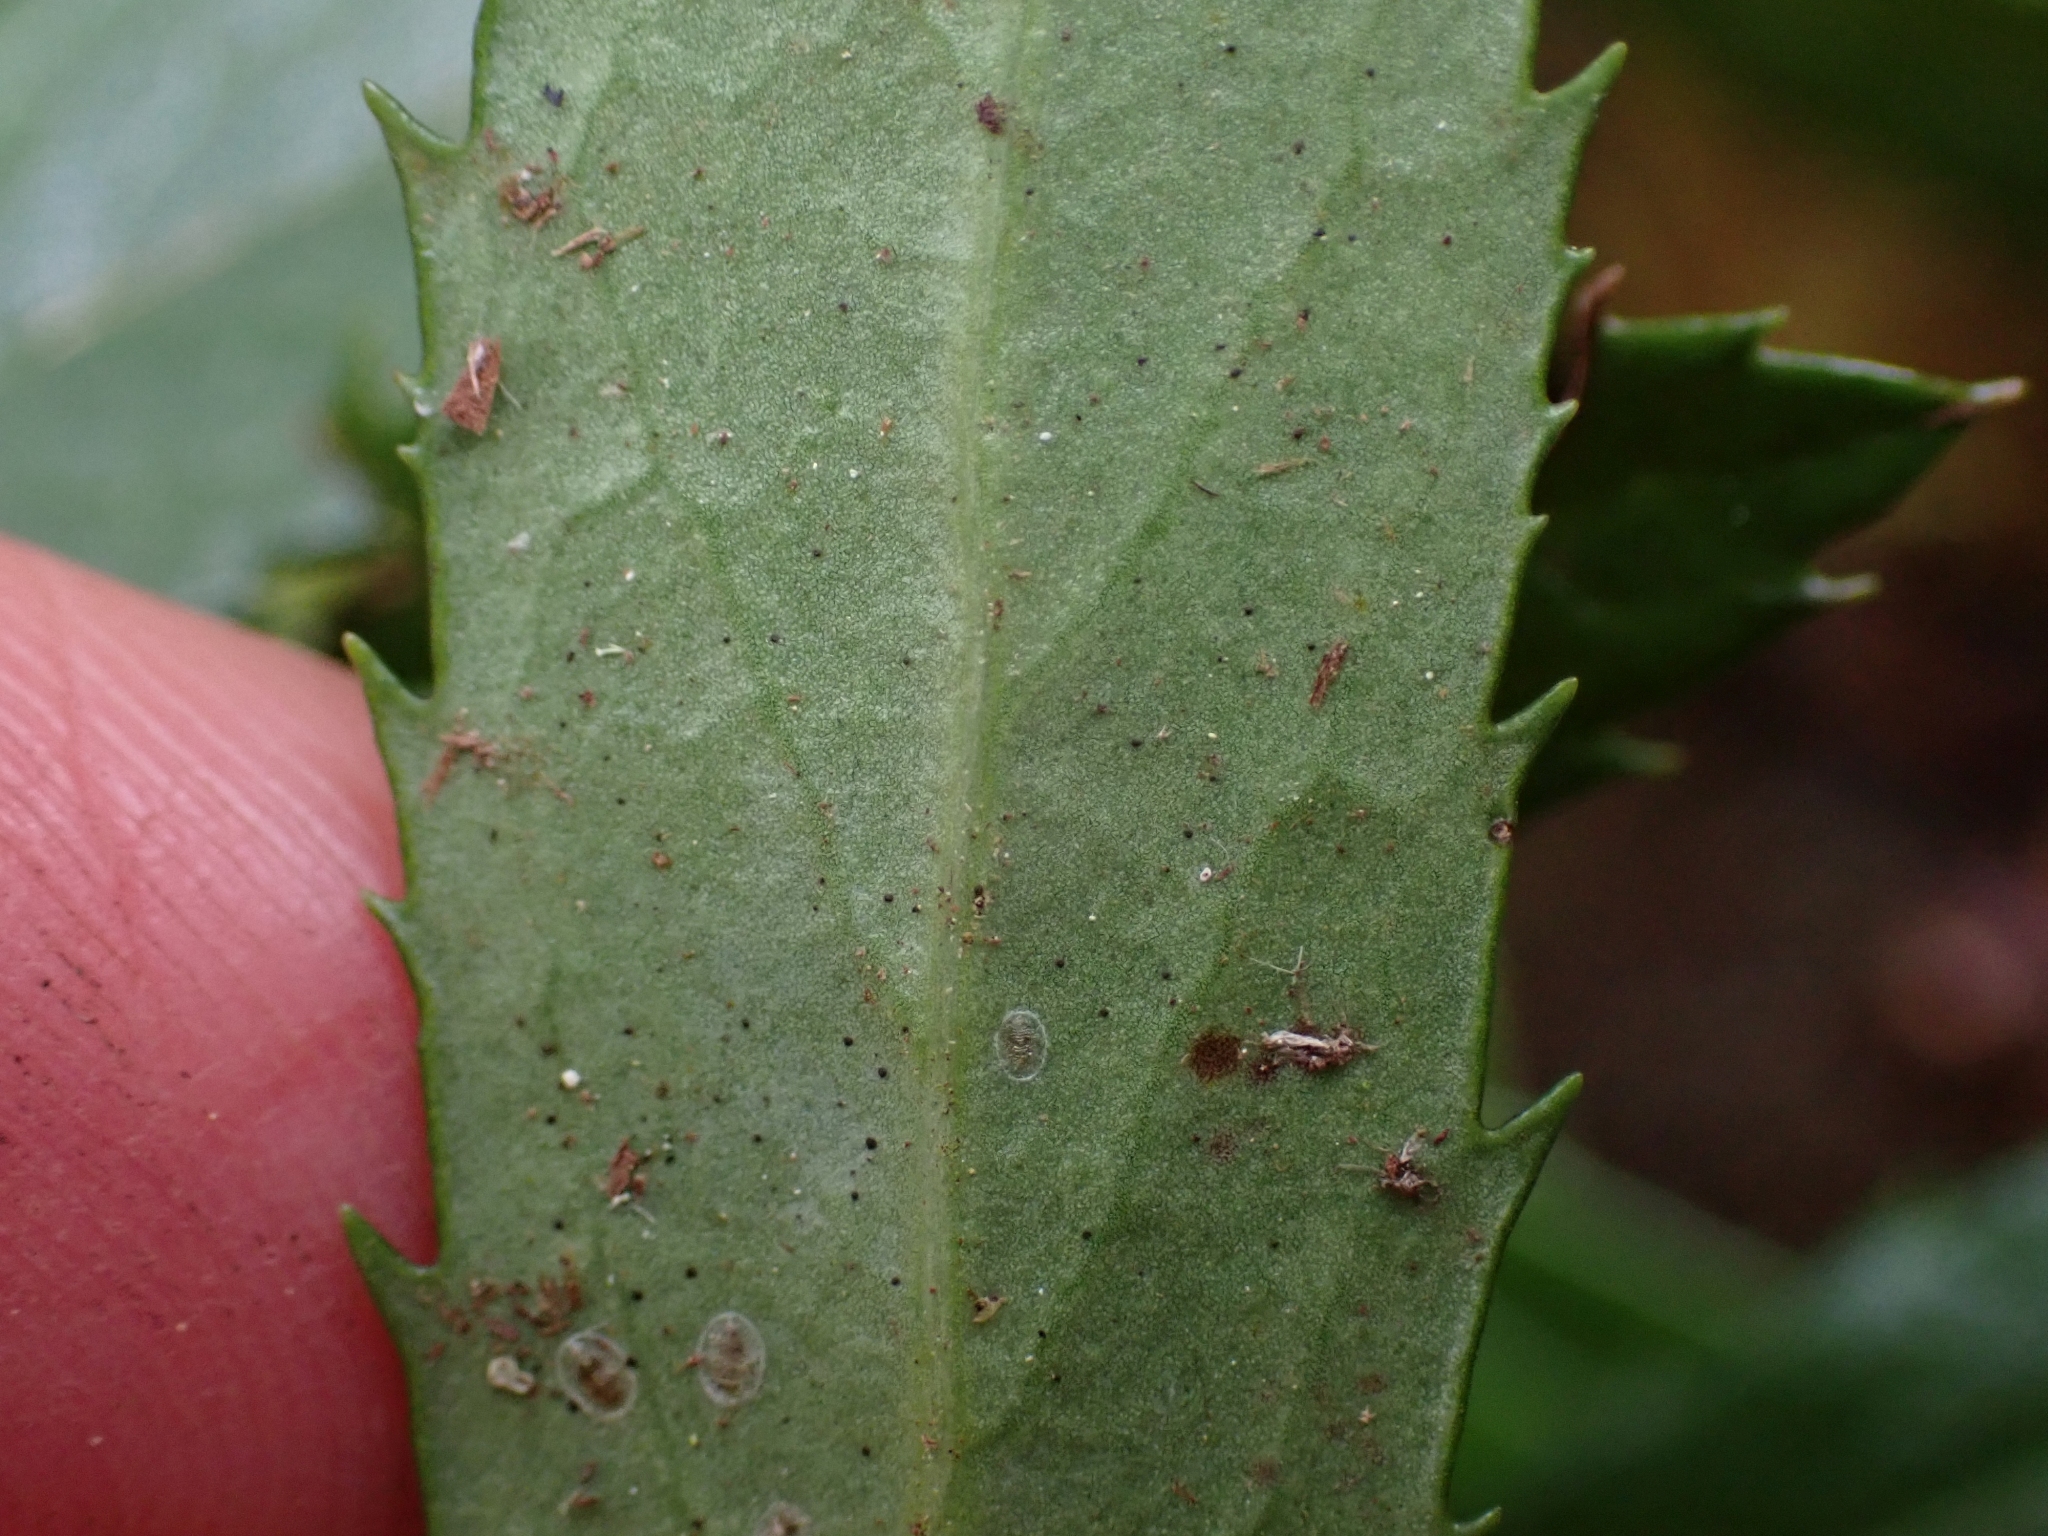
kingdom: Plantae
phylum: Tracheophyta
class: Magnoliopsida
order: Ericales
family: Ericaceae
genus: Chimaphila
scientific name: Chimaphila umbellata
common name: Pipsissewa
